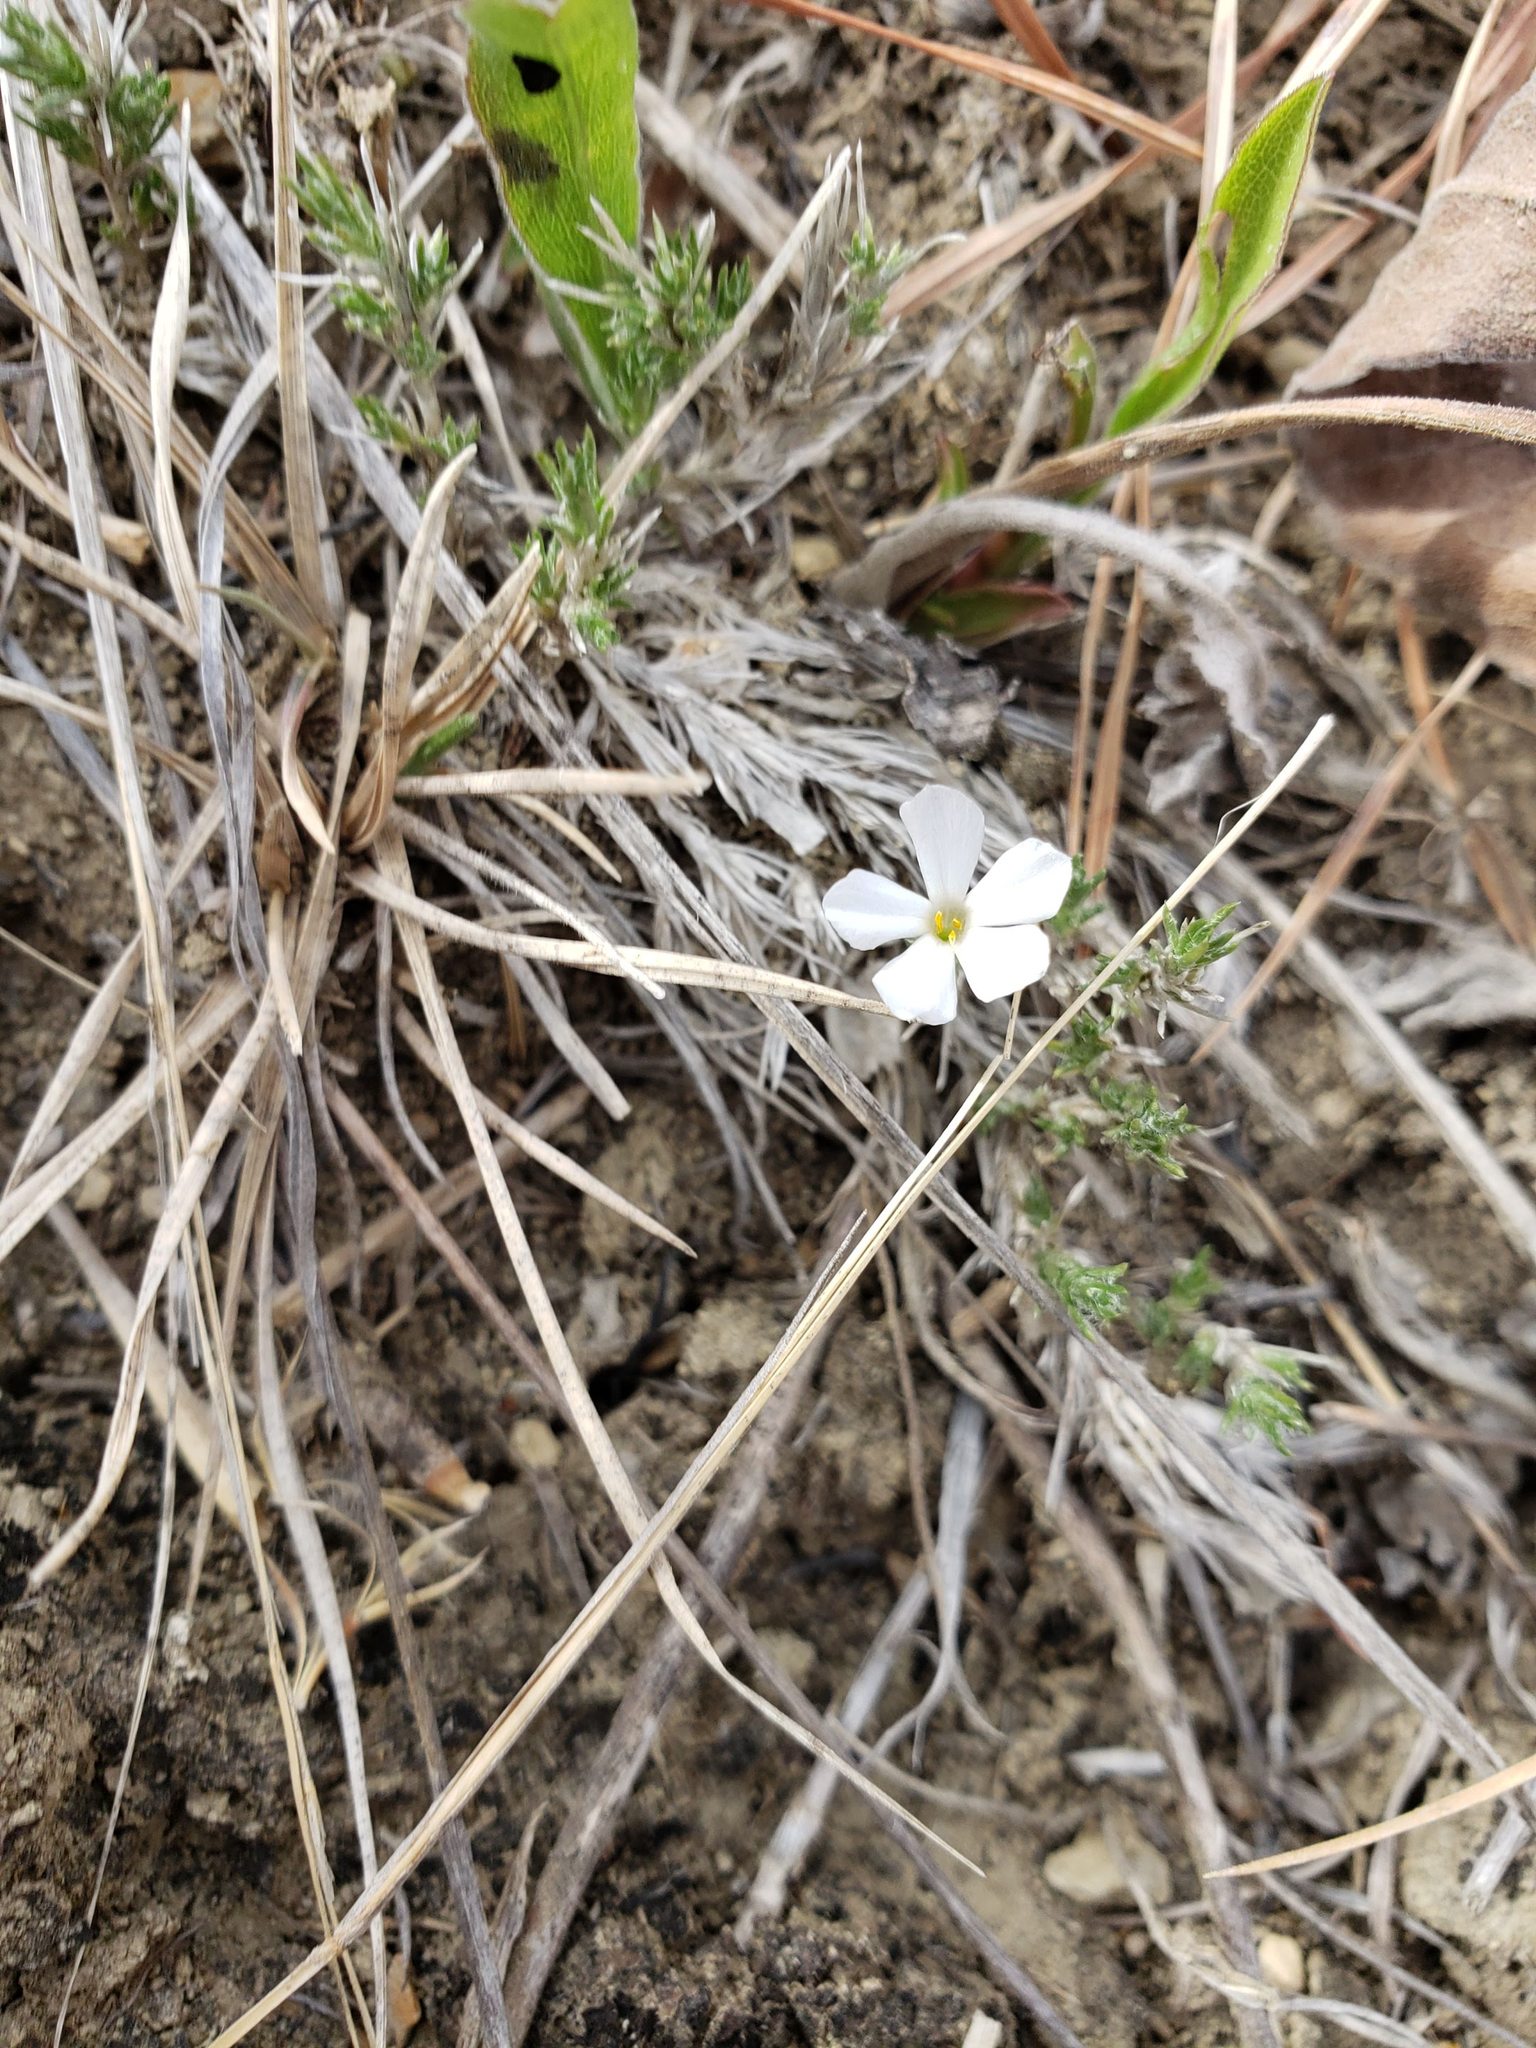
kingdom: Plantae
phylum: Tracheophyta
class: Magnoliopsida
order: Ericales
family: Polemoniaceae
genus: Phlox
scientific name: Phlox hoodii
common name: Moss phlox
